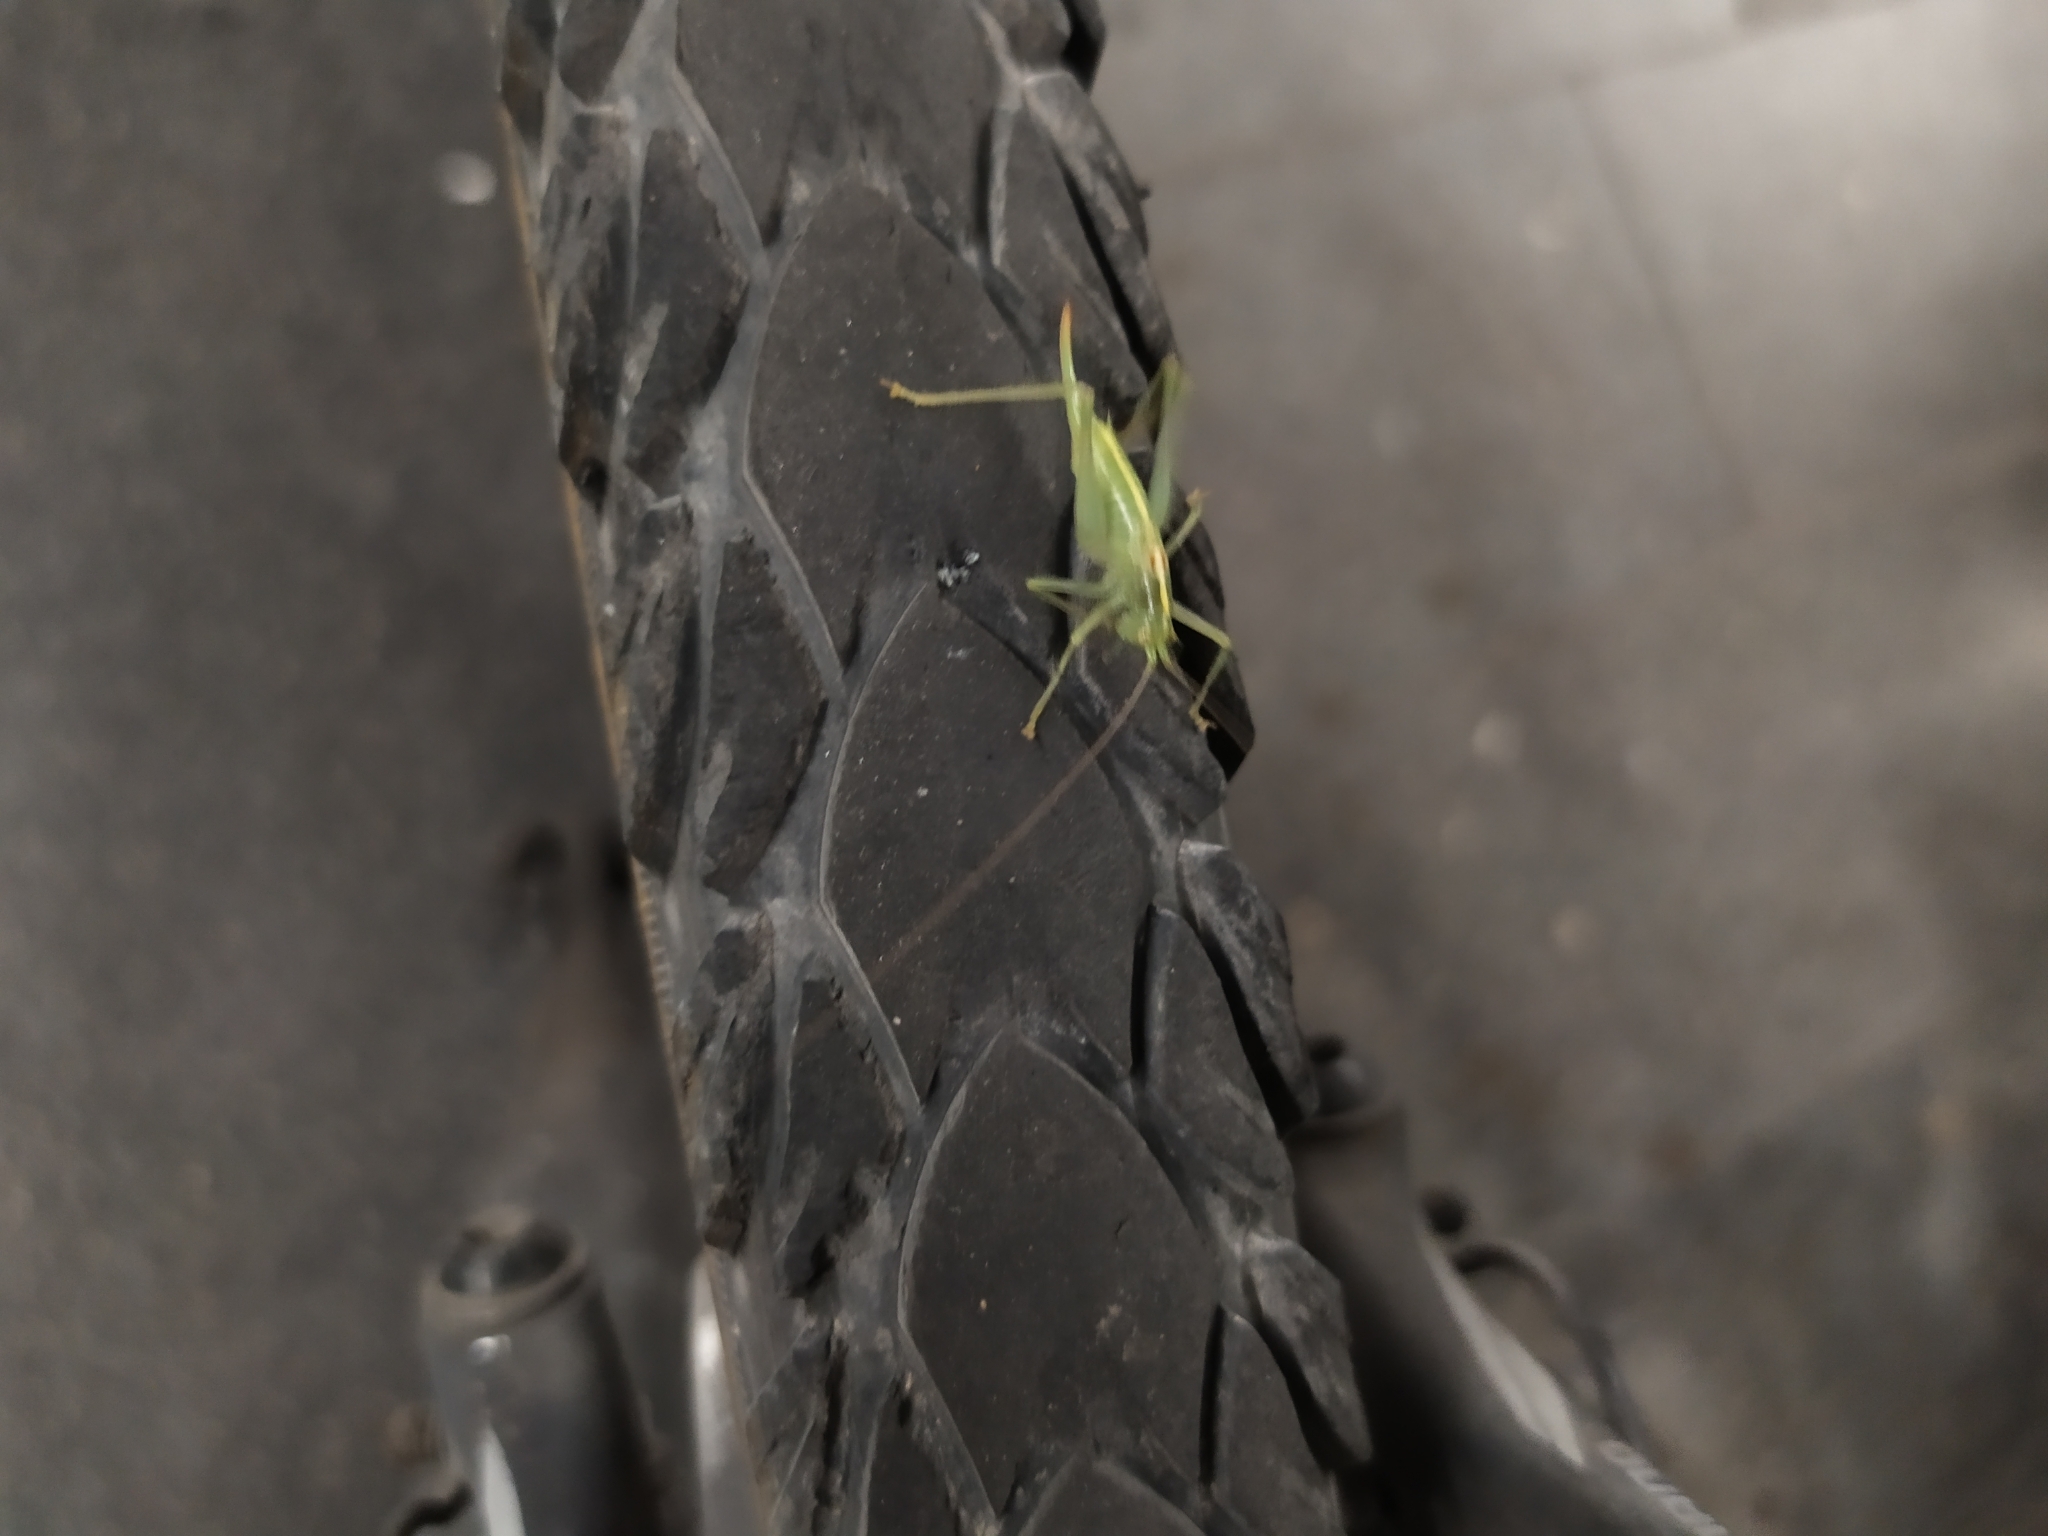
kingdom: Animalia
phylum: Arthropoda
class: Insecta
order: Orthoptera
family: Tettigoniidae
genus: Meconema
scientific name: Meconema meridionale
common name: Southern oak bush-cricket
